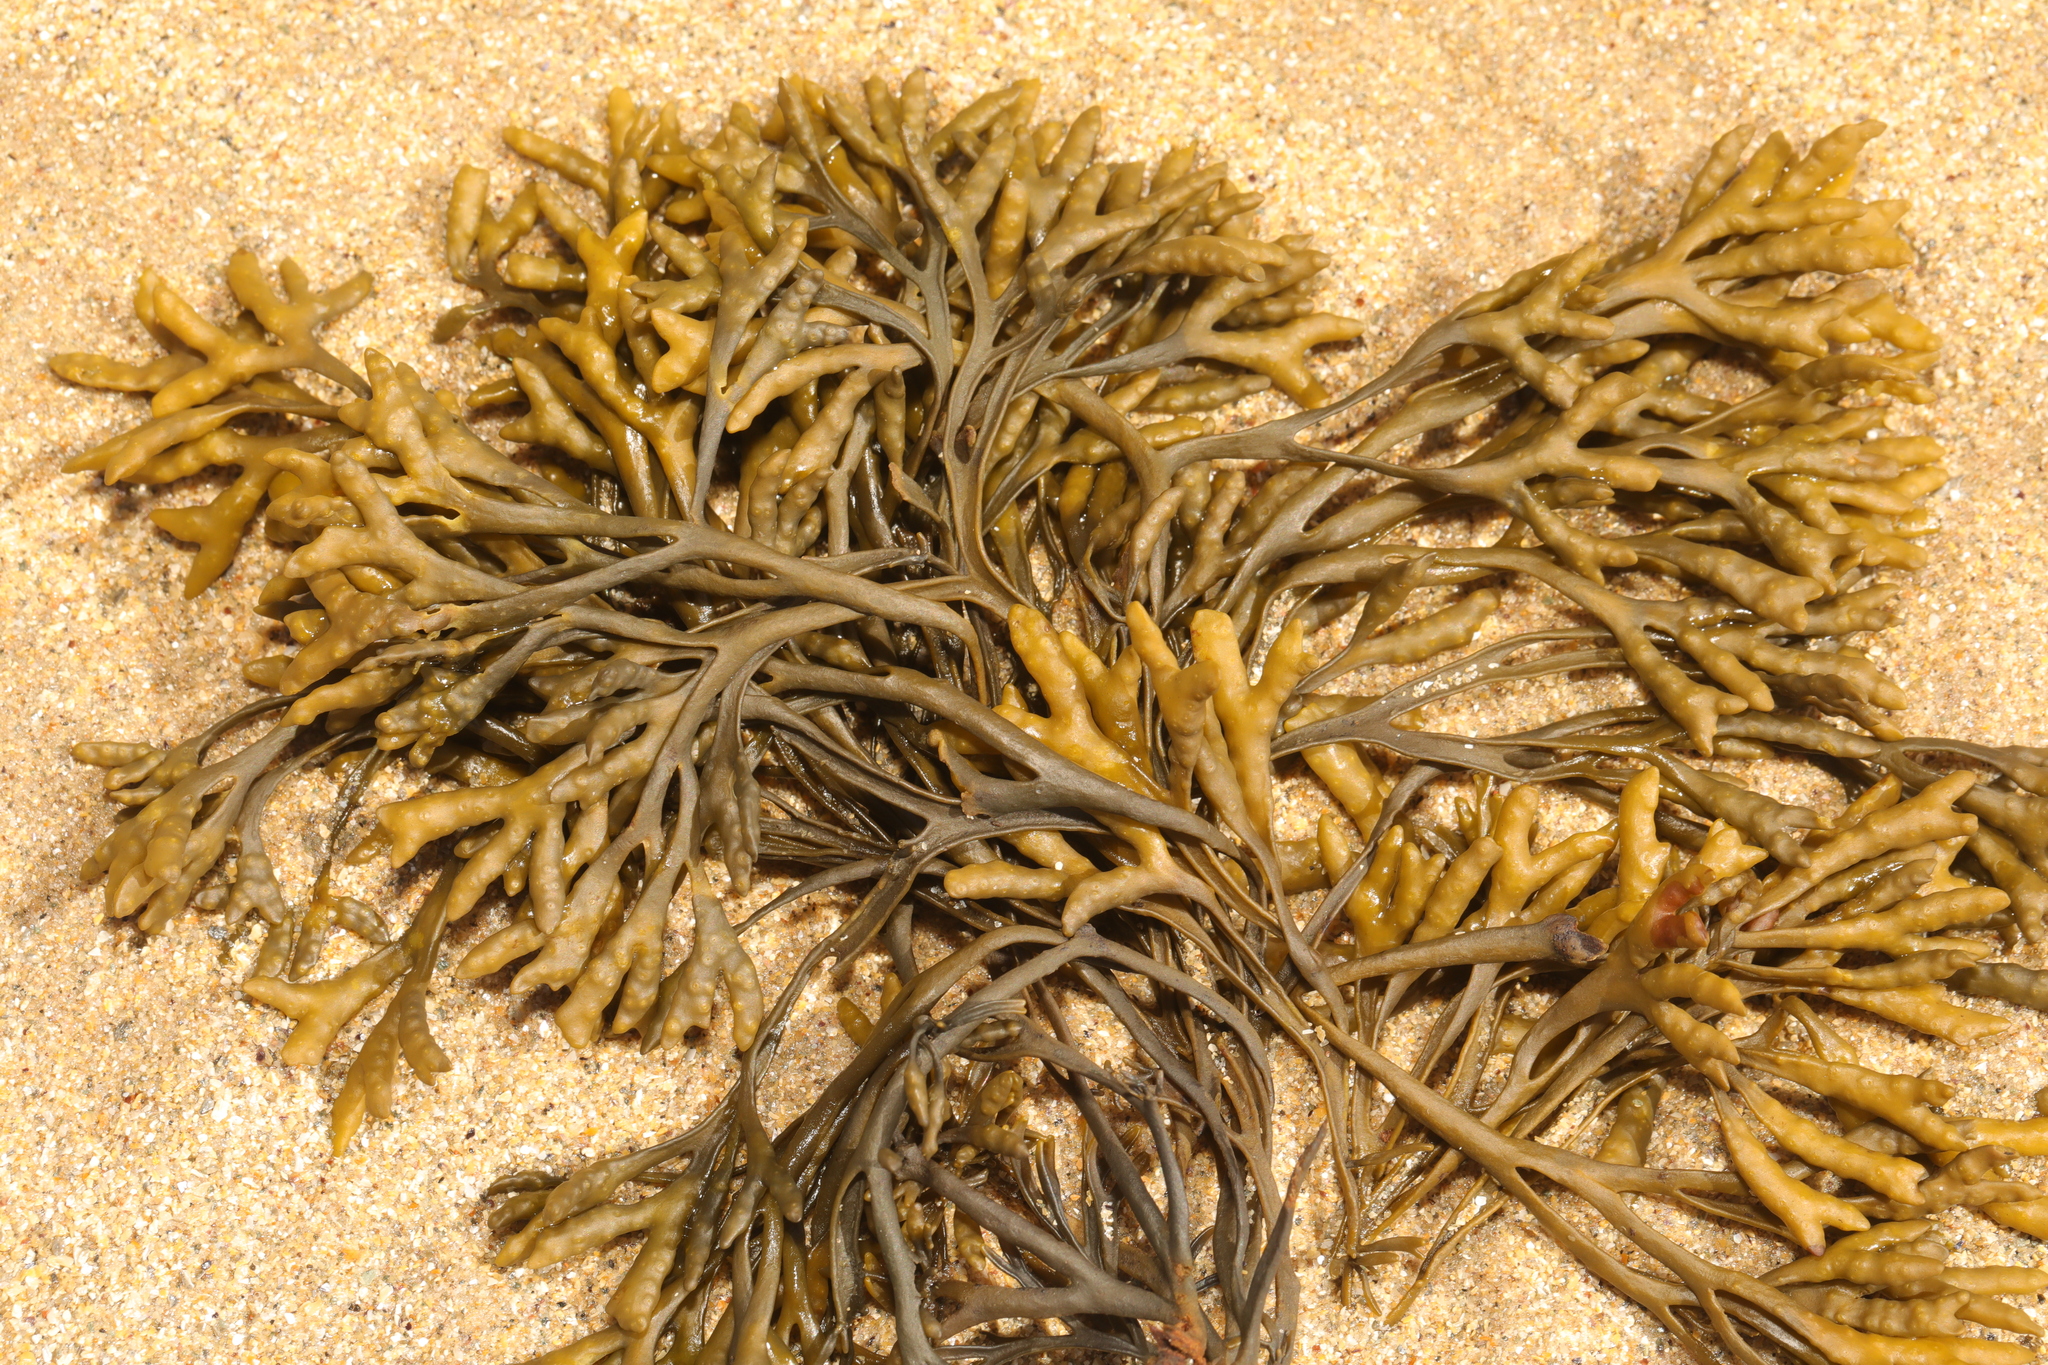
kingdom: Chromista
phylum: Ochrophyta
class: Phaeophyceae
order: Fucales
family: Fucaceae
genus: Pelvetia
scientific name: Pelvetia canaliculata
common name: Channelled wrack
